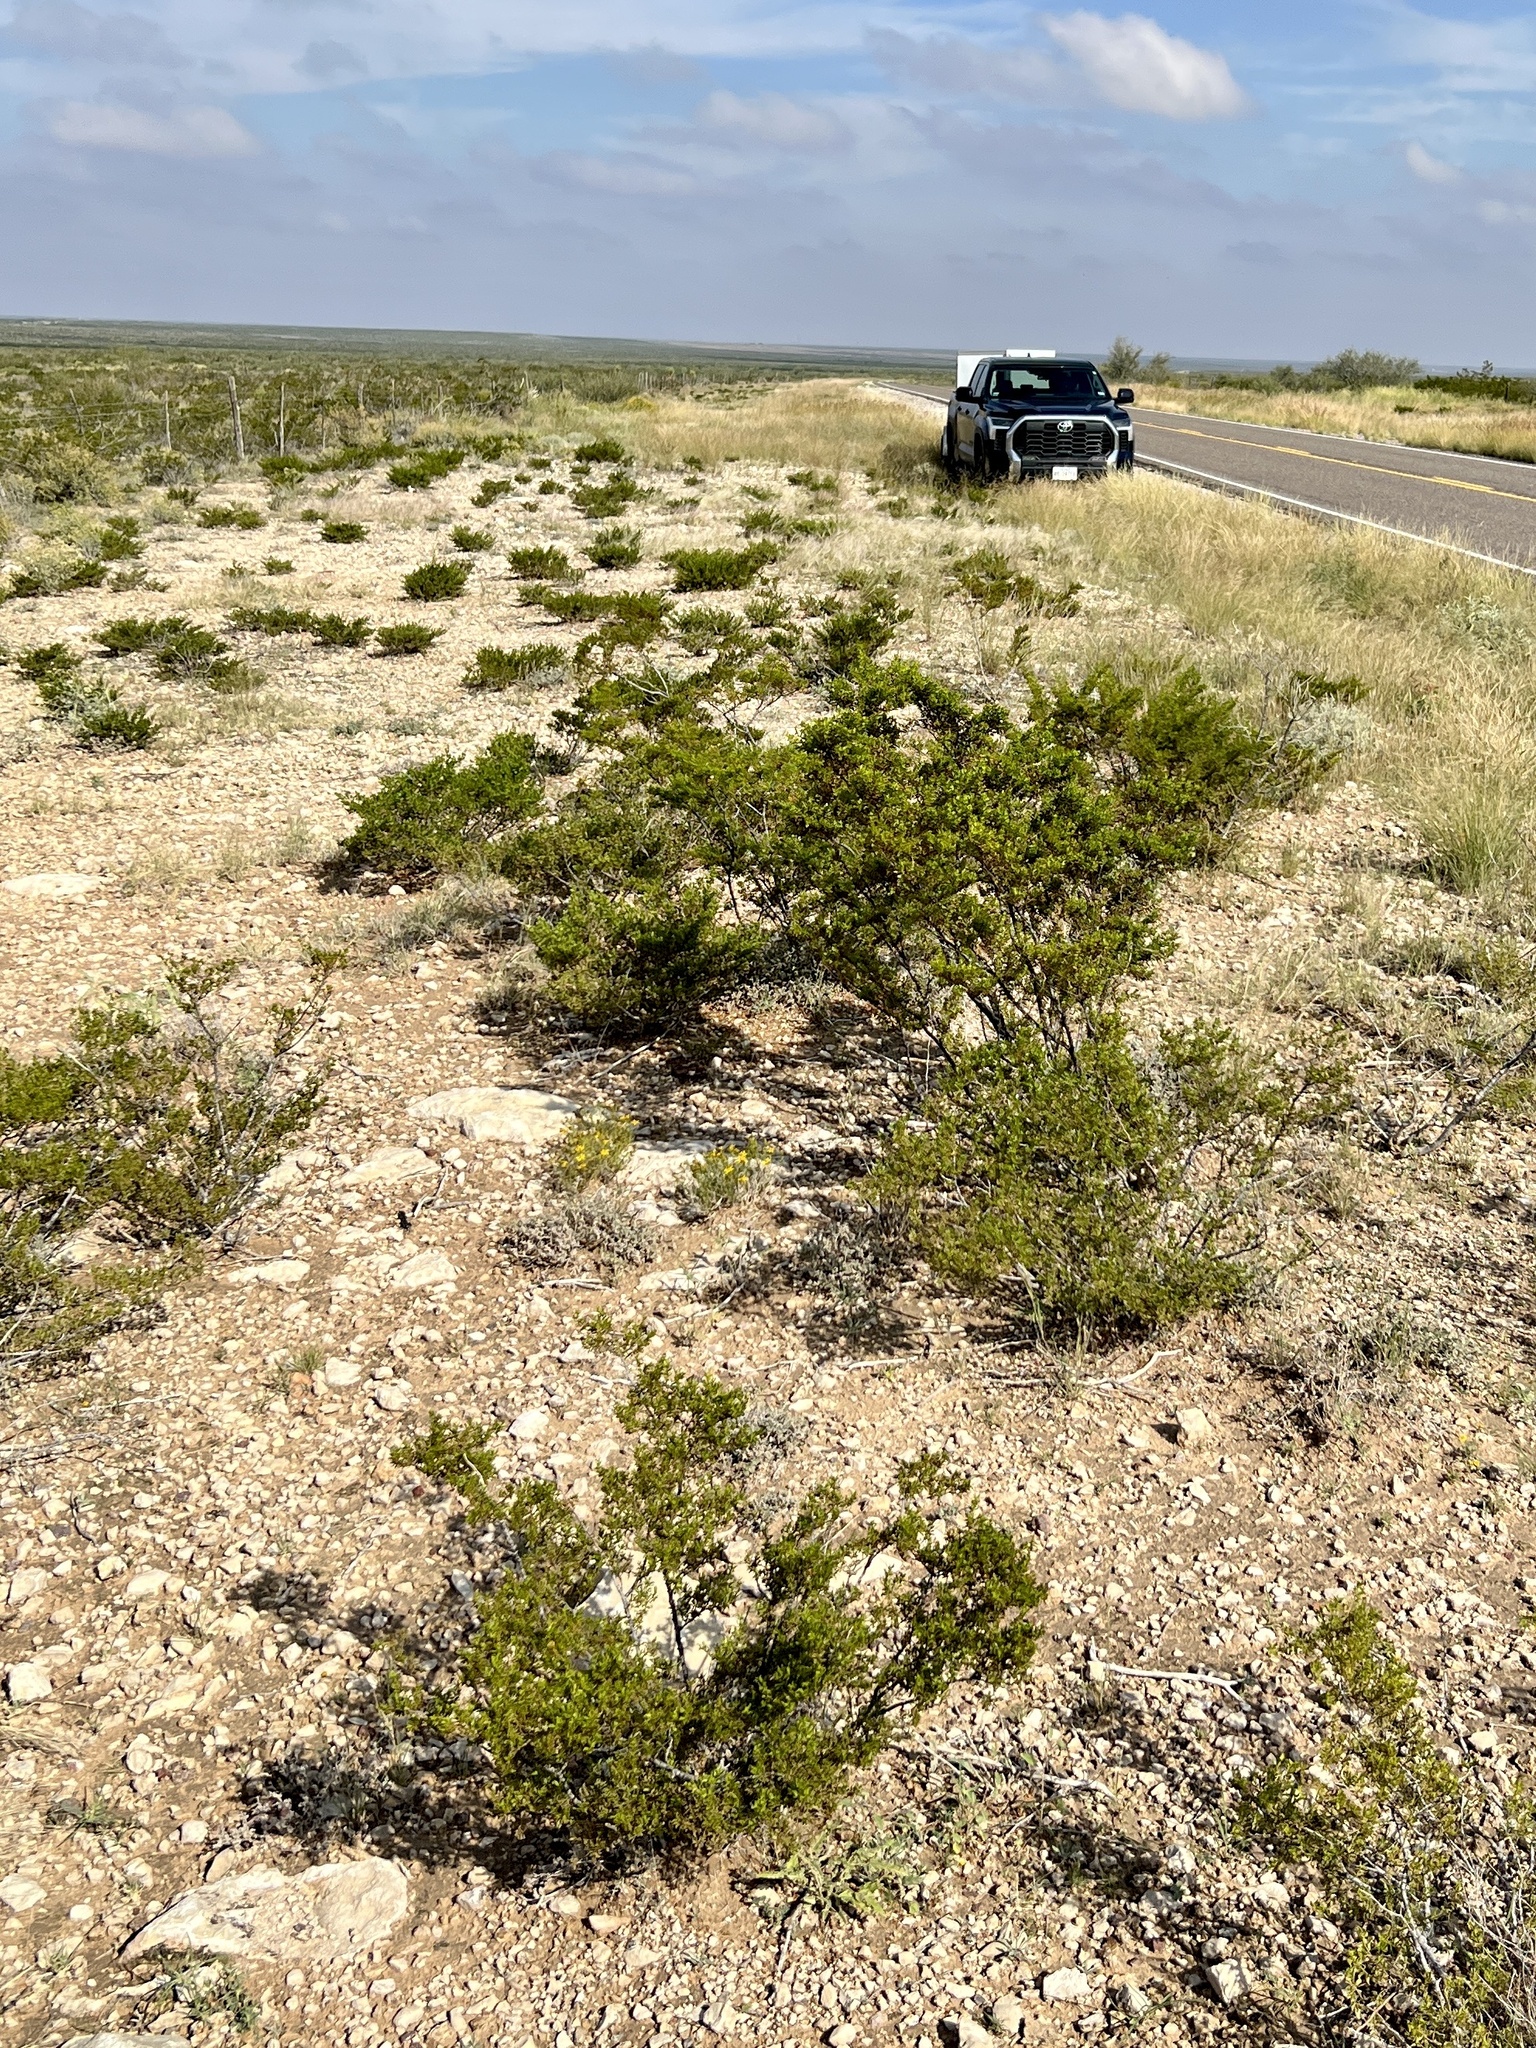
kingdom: Plantae
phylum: Tracheophyta
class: Magnoliopsida
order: Zygophyllales
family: Zygophyllaceae
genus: Larrea
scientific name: Larrea tridentata
